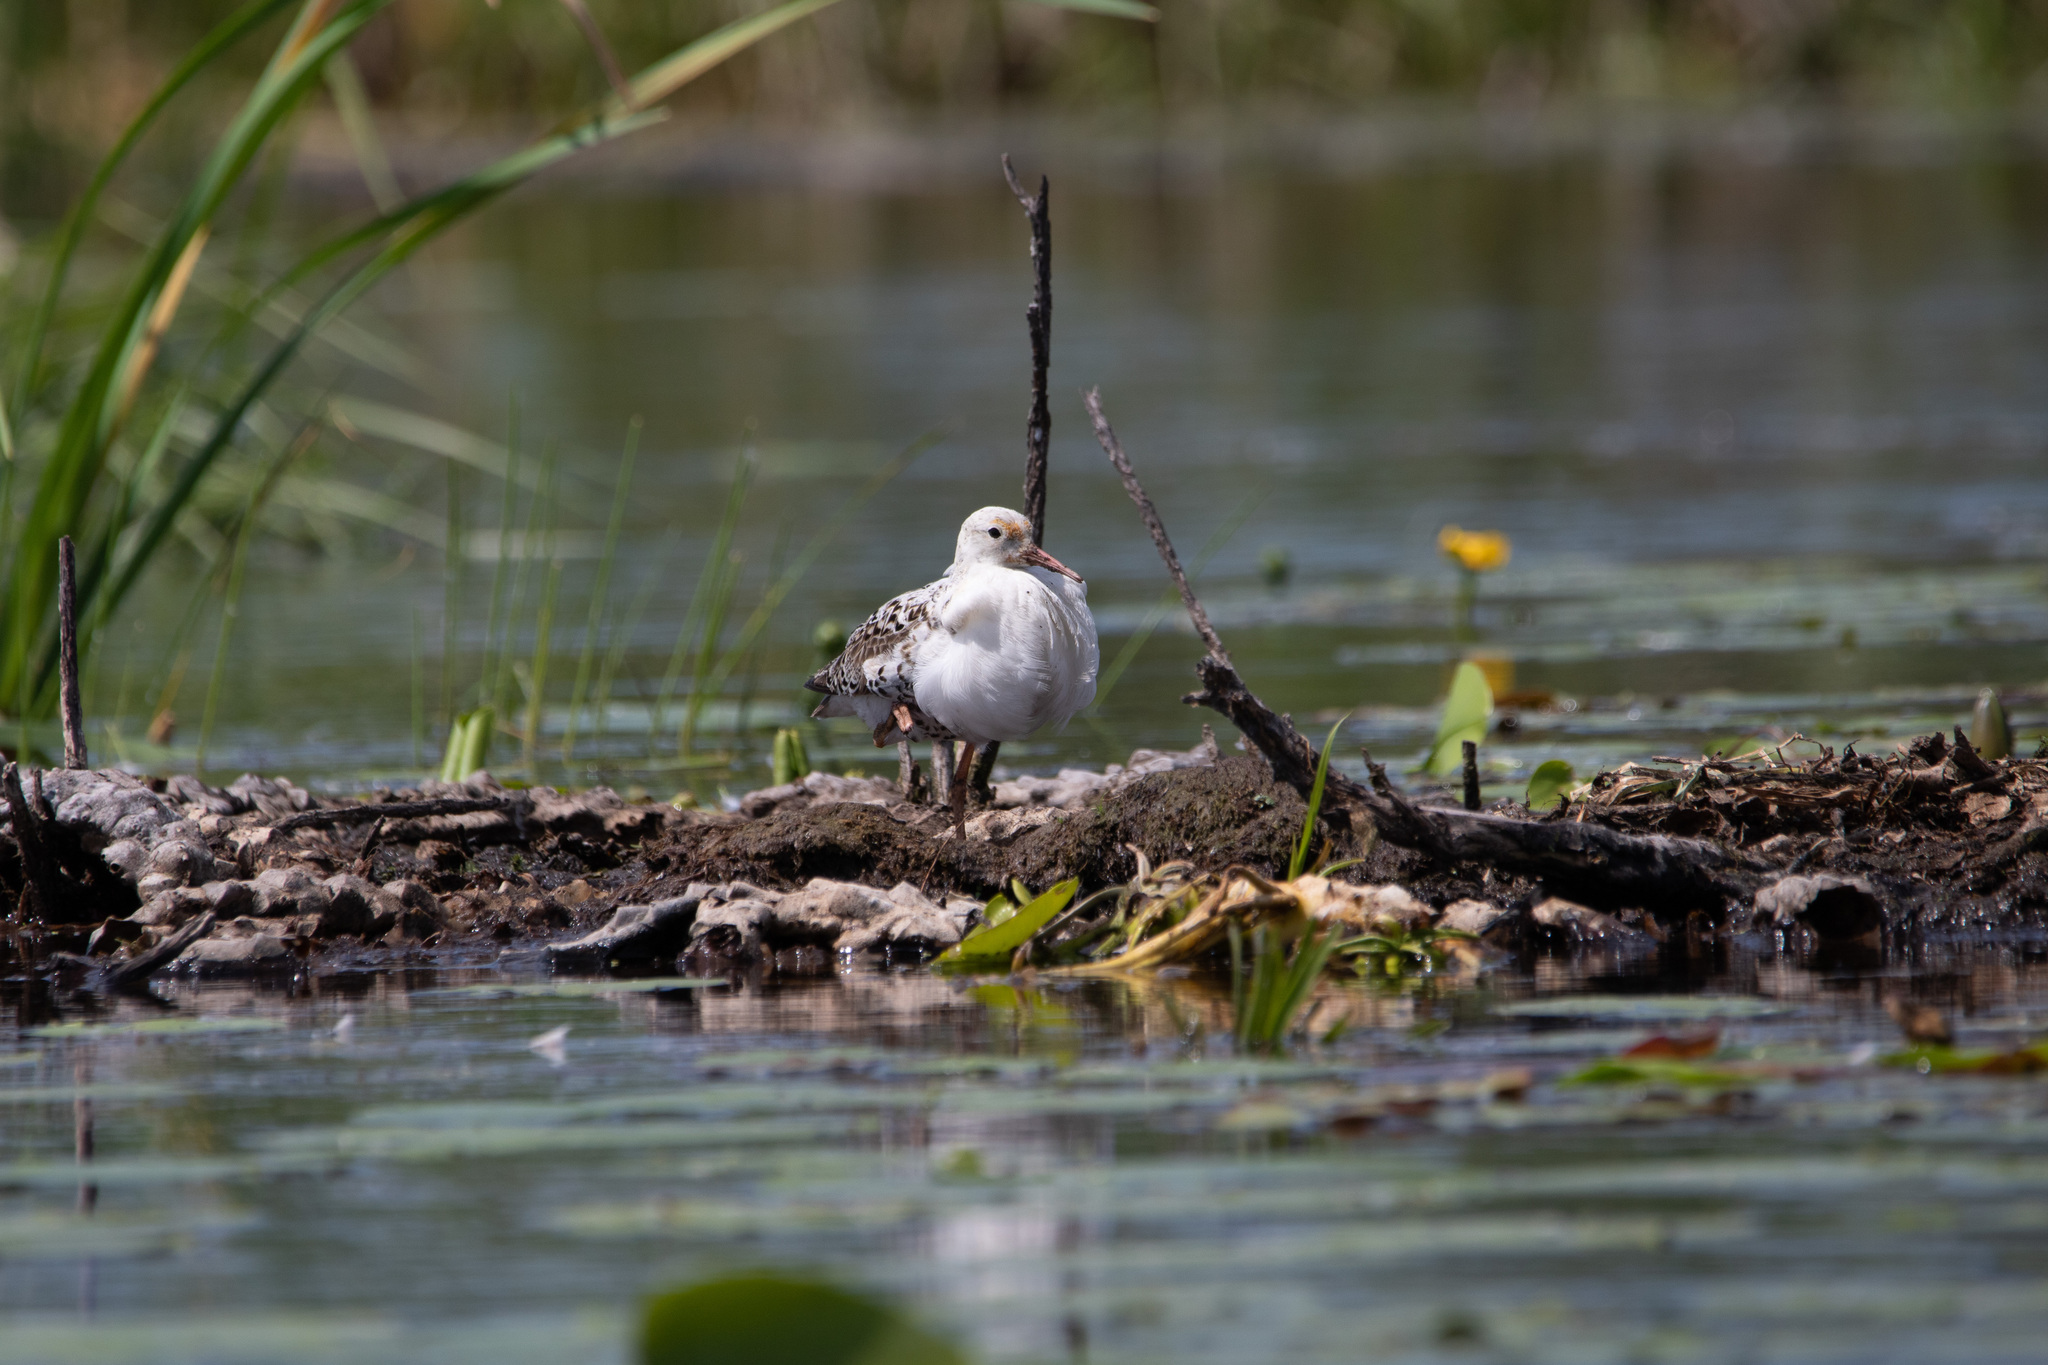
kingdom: Animalia
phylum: Chordata
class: Aves
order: Charadriiformes
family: Scolopacidae
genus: Calidris
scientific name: Calidris pugnax
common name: Ruff
